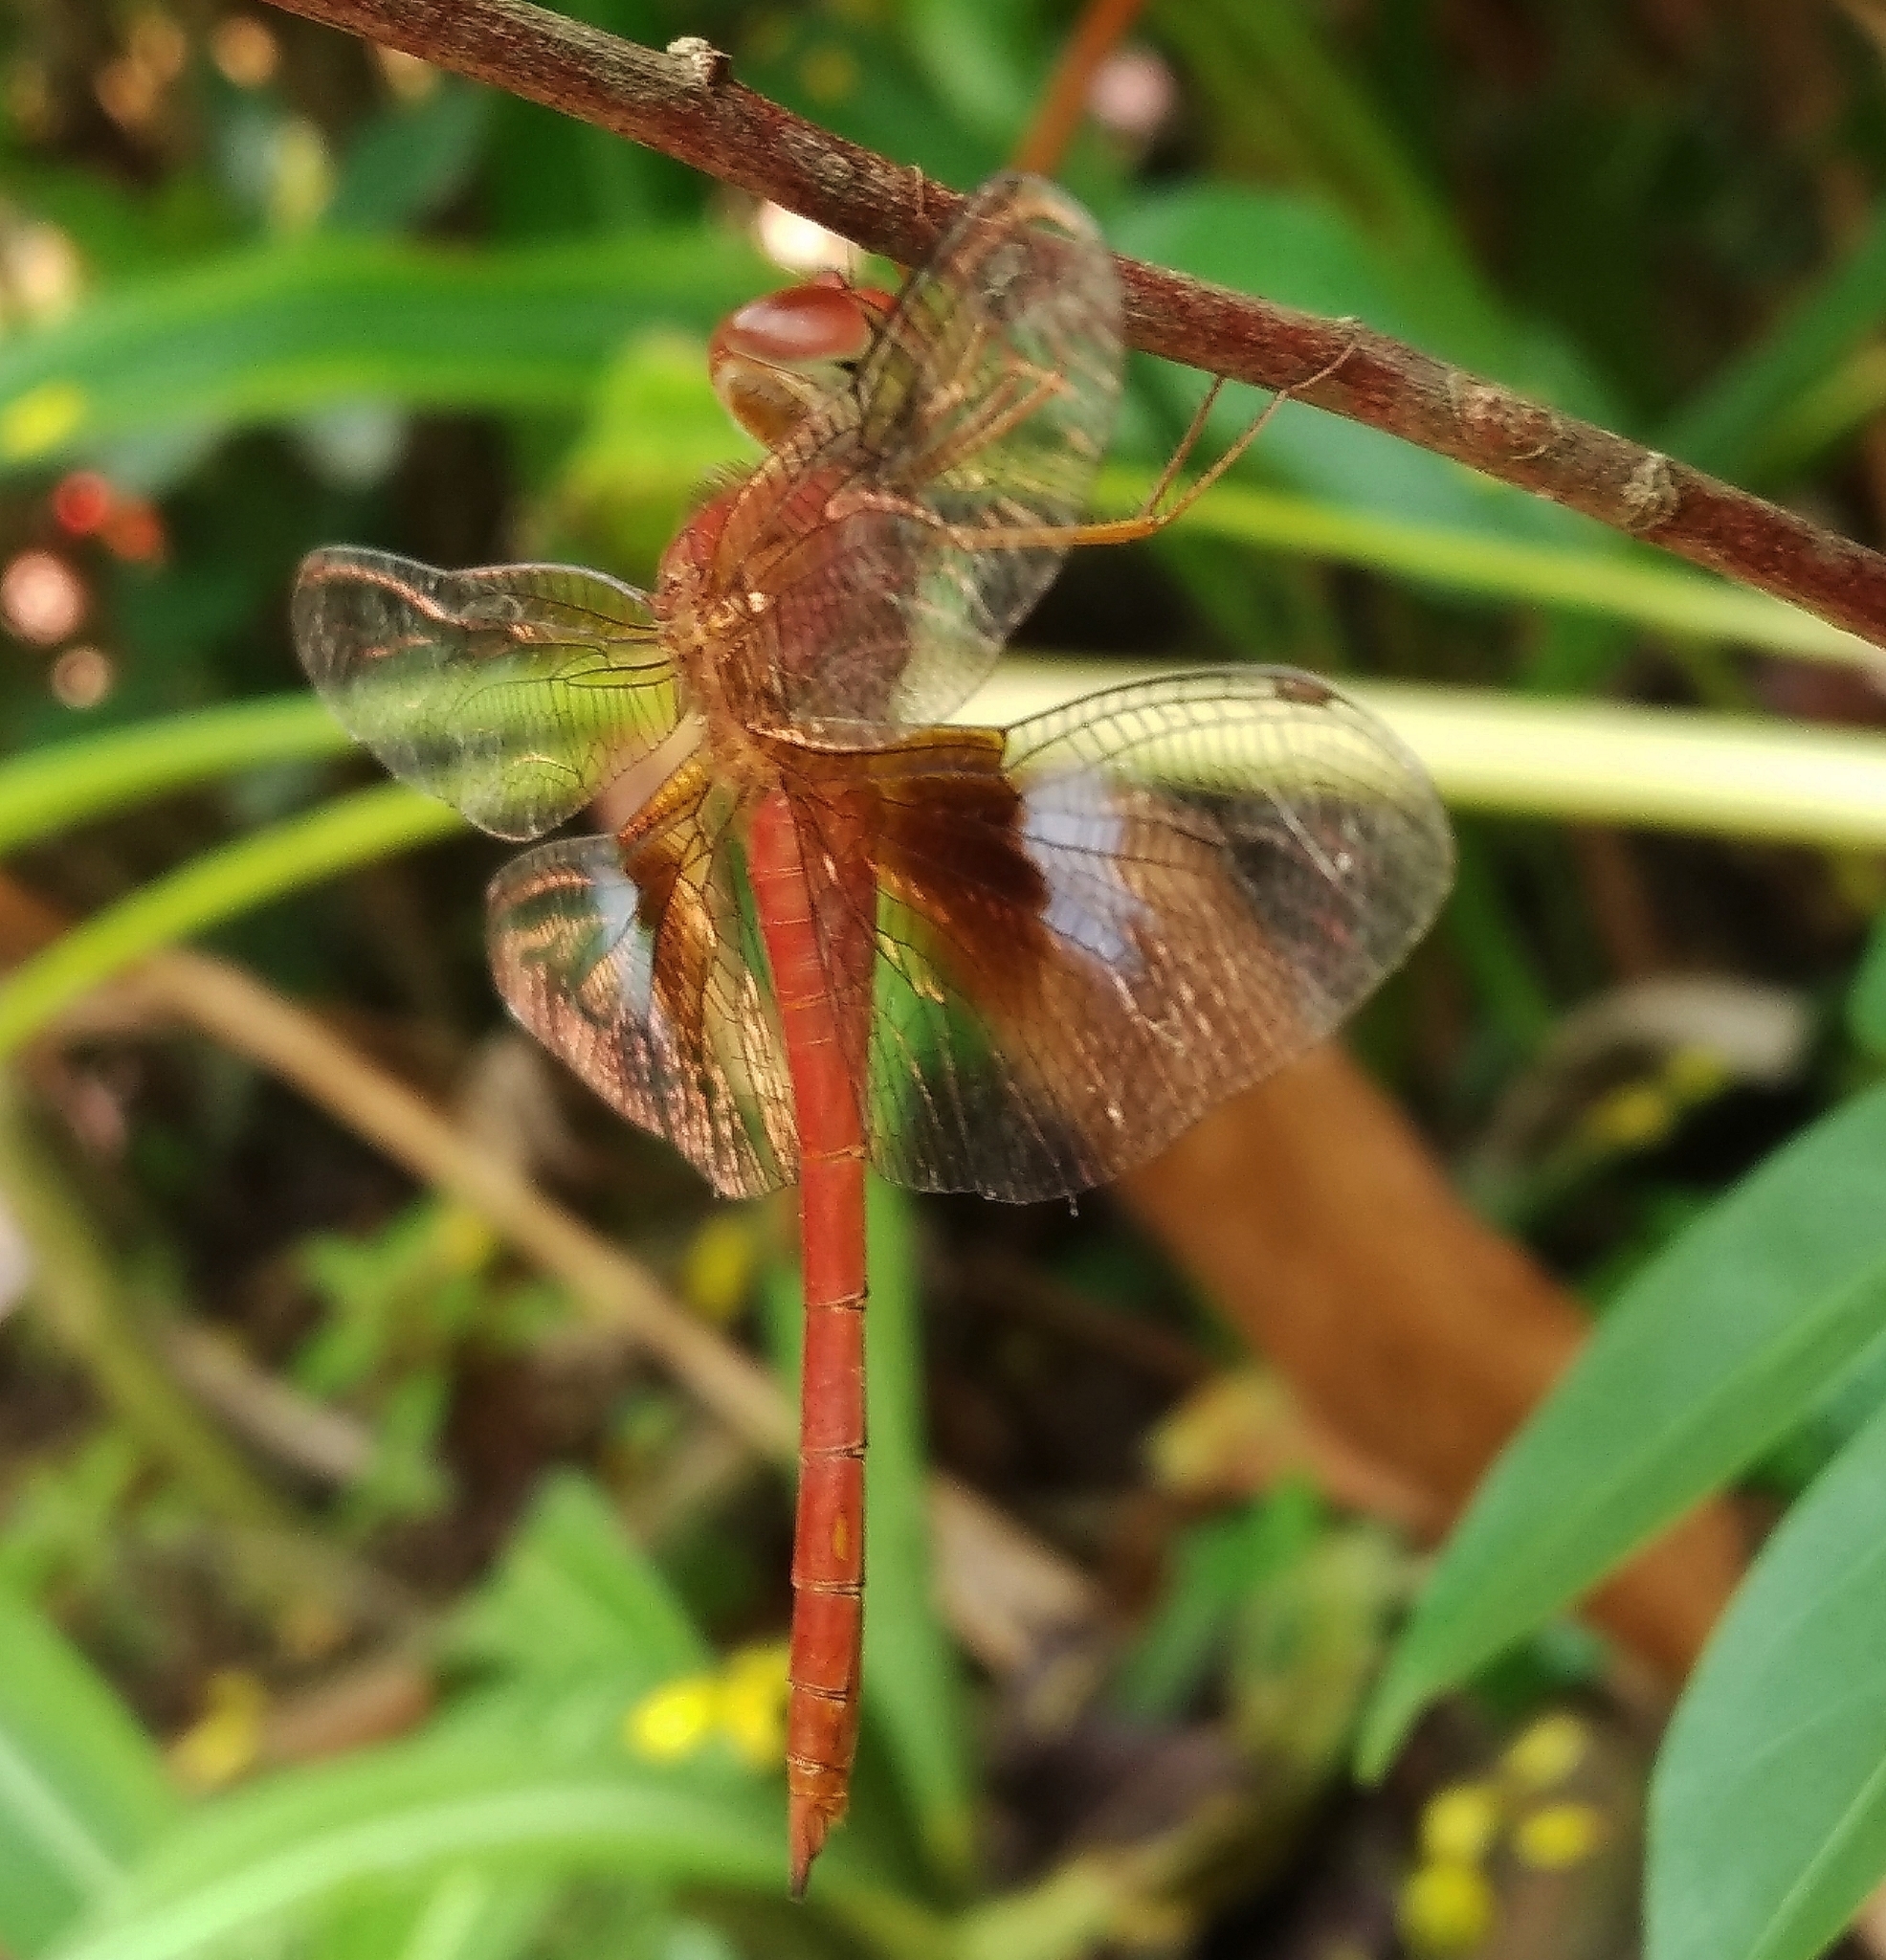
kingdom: Animalia
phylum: Arthropoda
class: Insecta
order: Odonata
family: Libellulidae
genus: Tholymis
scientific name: Tholymis tillarga
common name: Coral-tailed cloud wing
